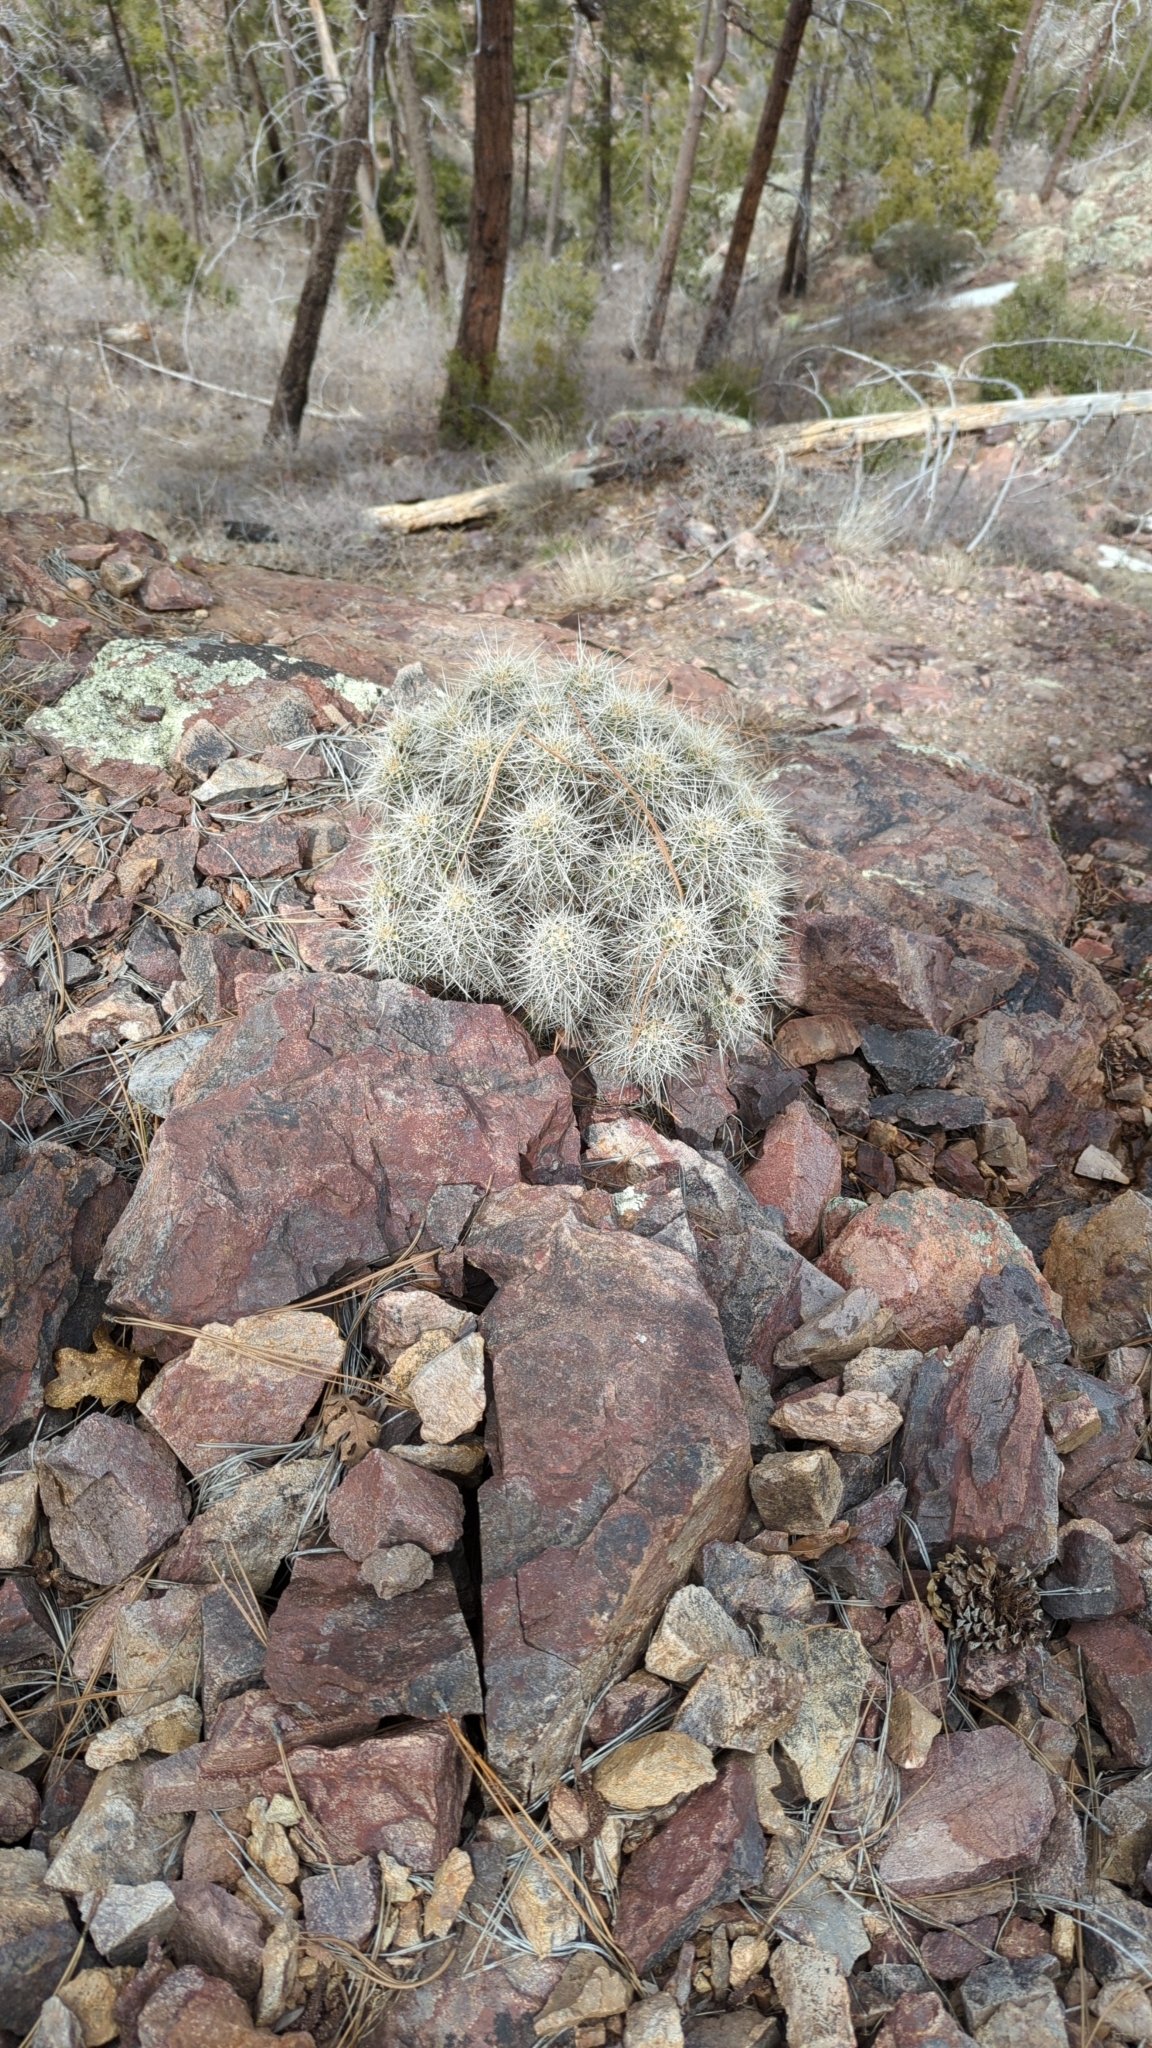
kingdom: Plantae
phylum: Tracheophyta
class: Magnoliopsida
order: Caryophyllales
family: Cactaceae
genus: Echinocereus
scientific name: Echinocereus bakeri
